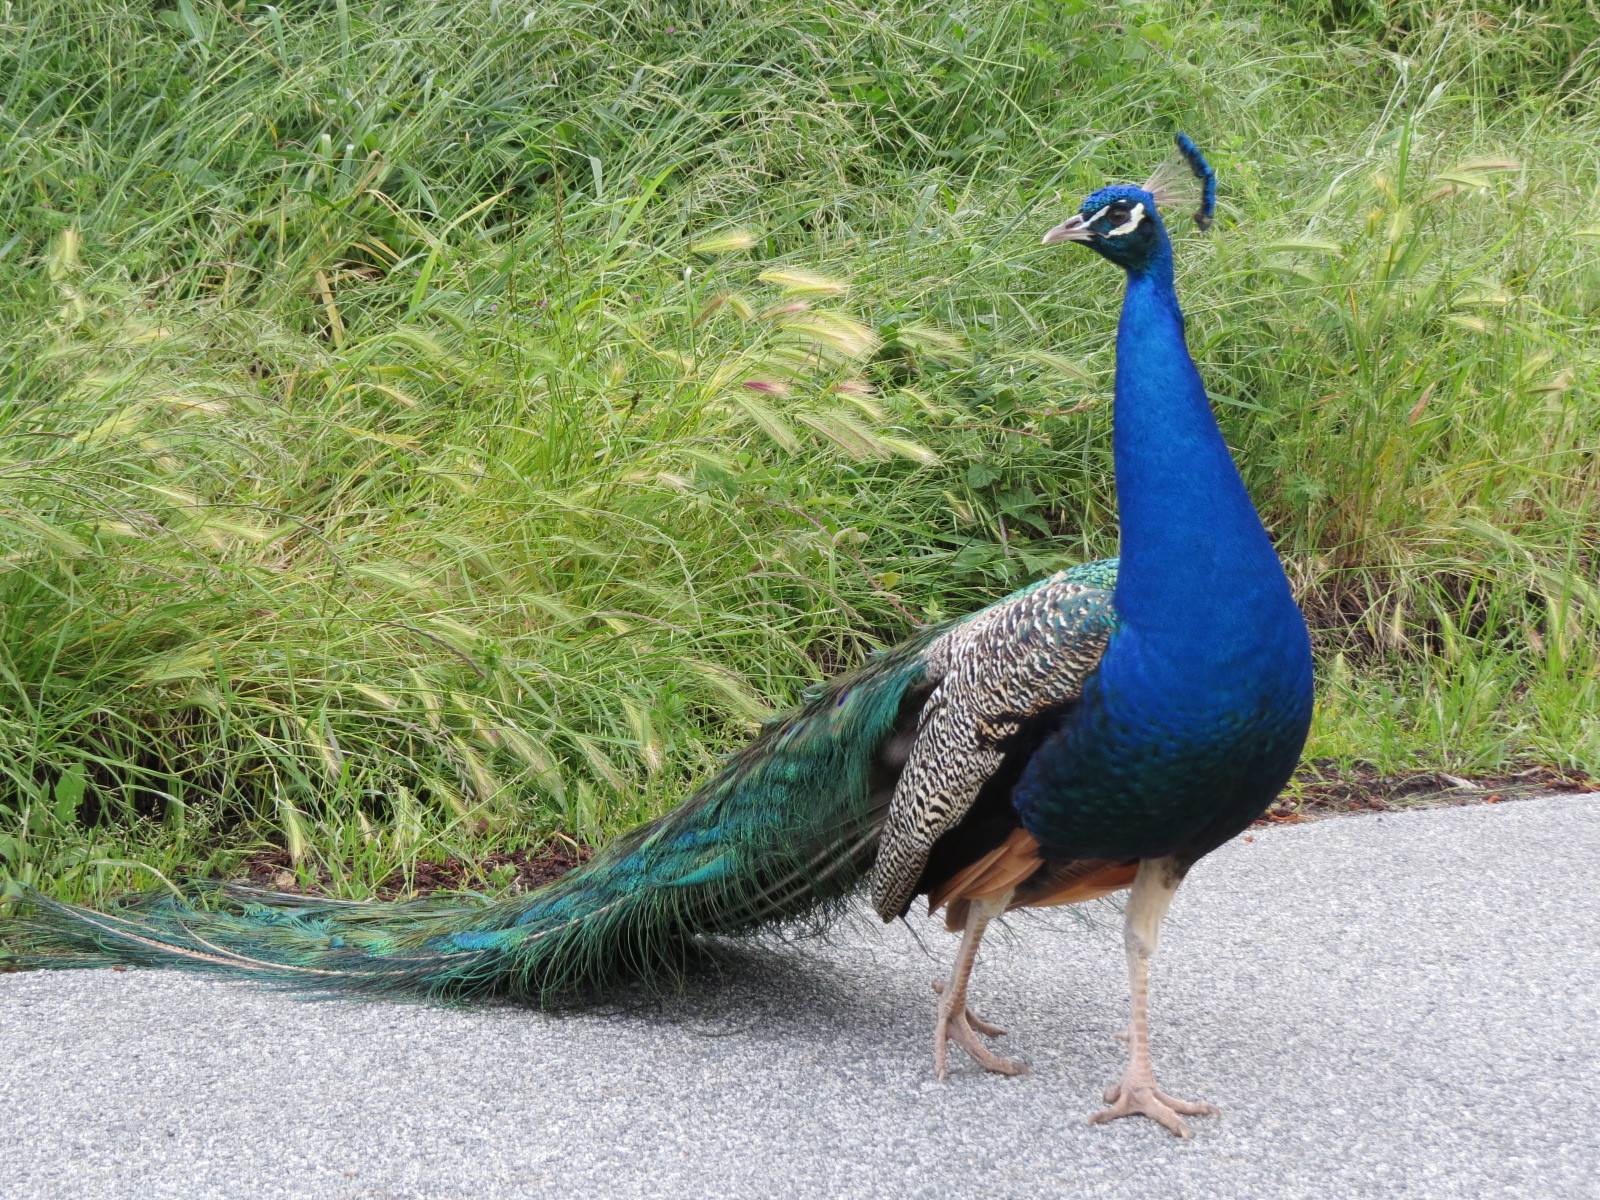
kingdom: Animalia
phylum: Chordata
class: Aves
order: Galliformes
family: Phasianidae
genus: Pavo
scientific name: Pavo cristatus
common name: Indian peafowl
